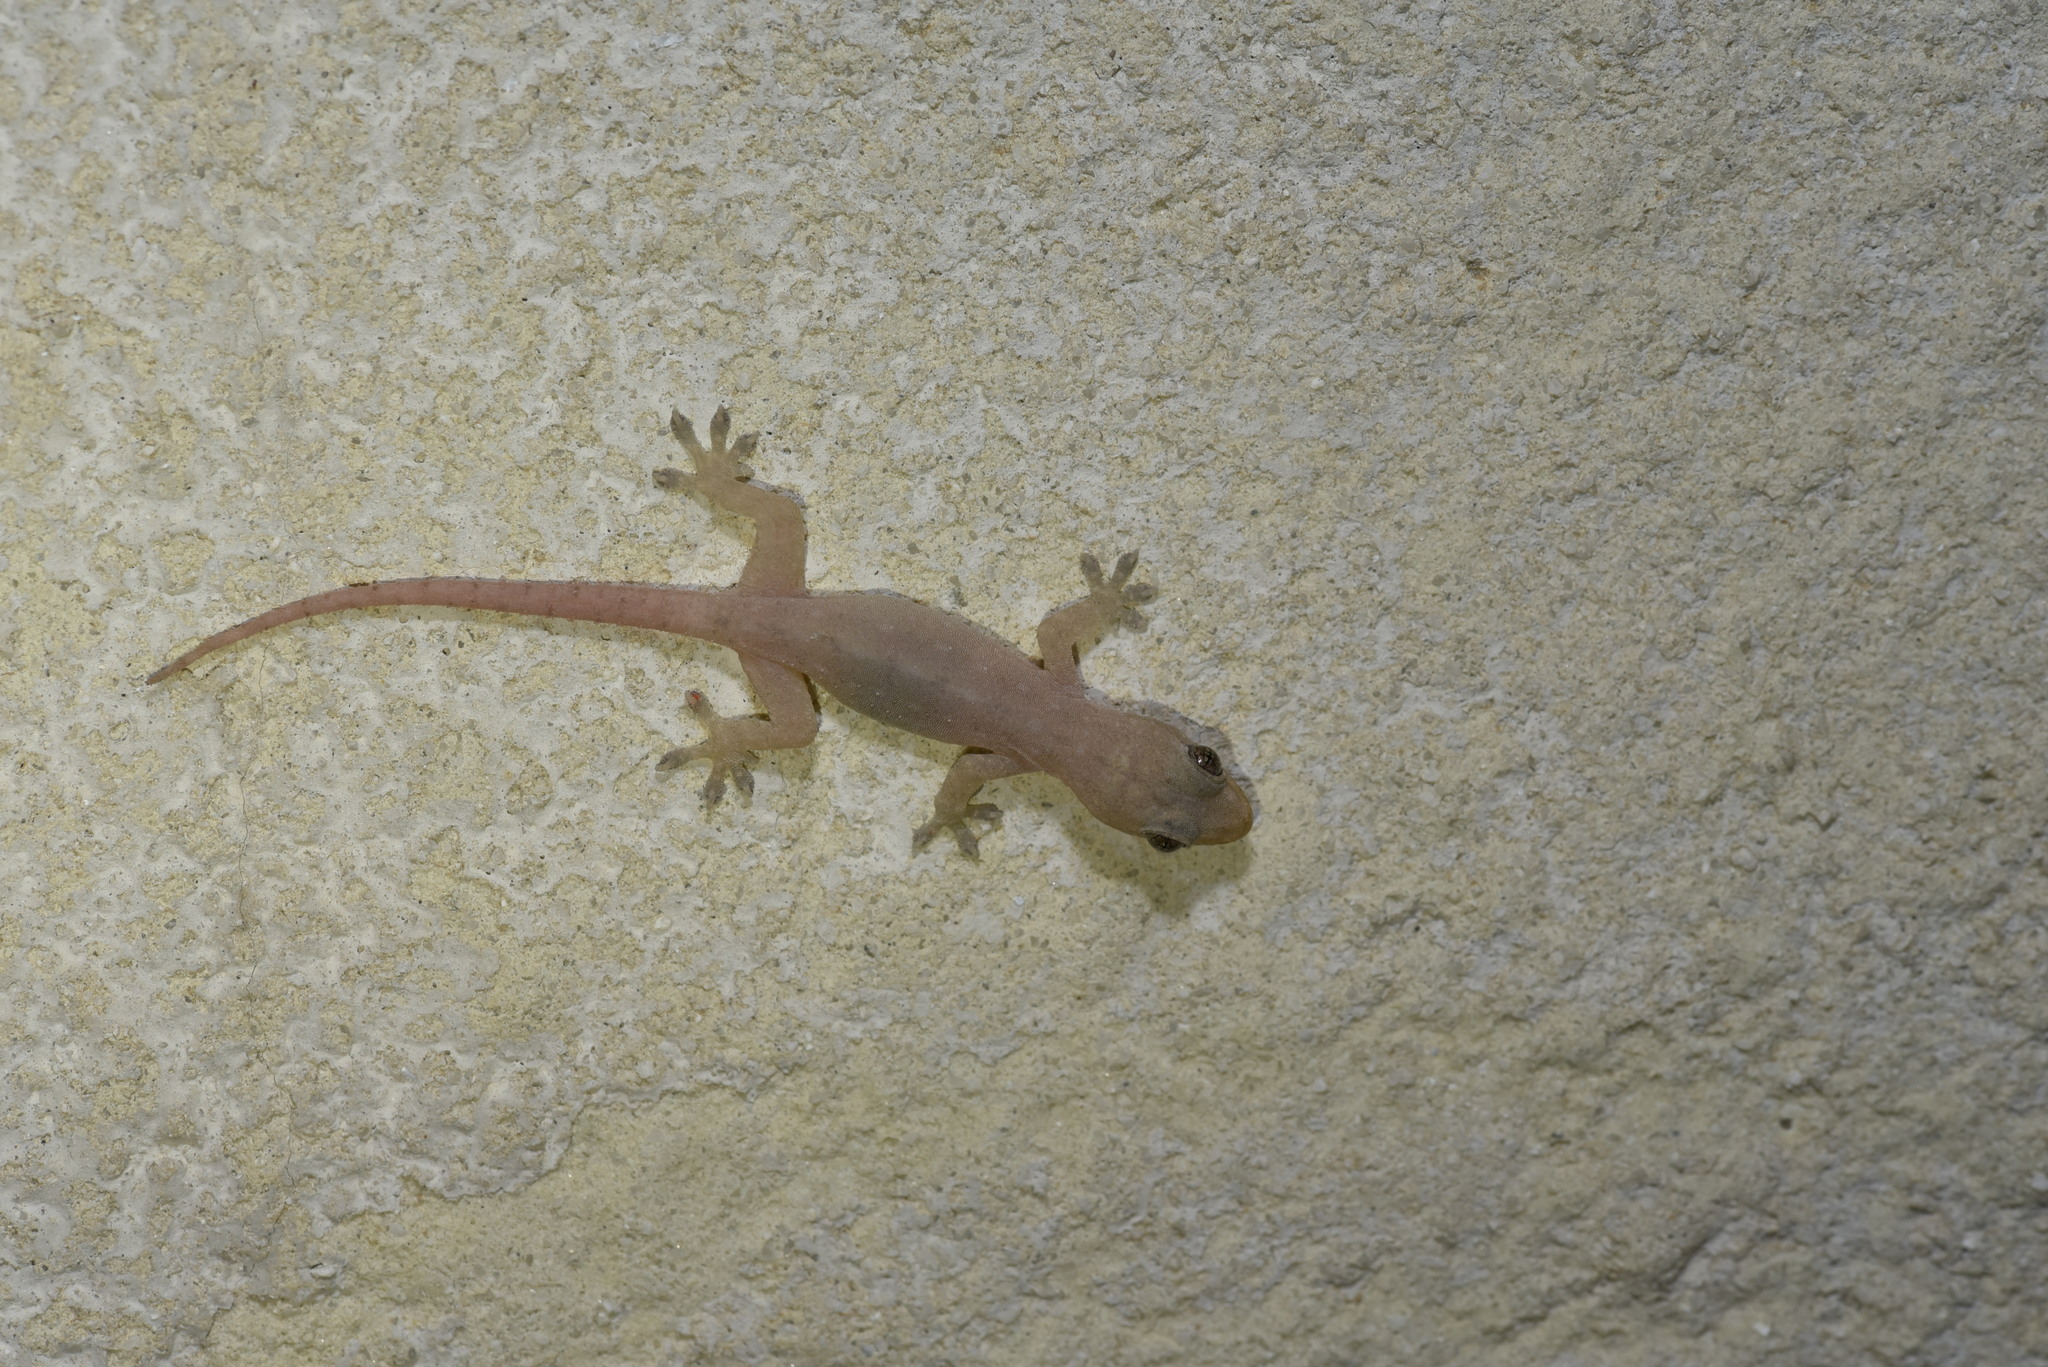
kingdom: Animalia
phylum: Chordata
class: Squamata
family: Gekkonidae
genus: Hemidactylus
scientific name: Hemidactylus frenatus
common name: Common house gecko
